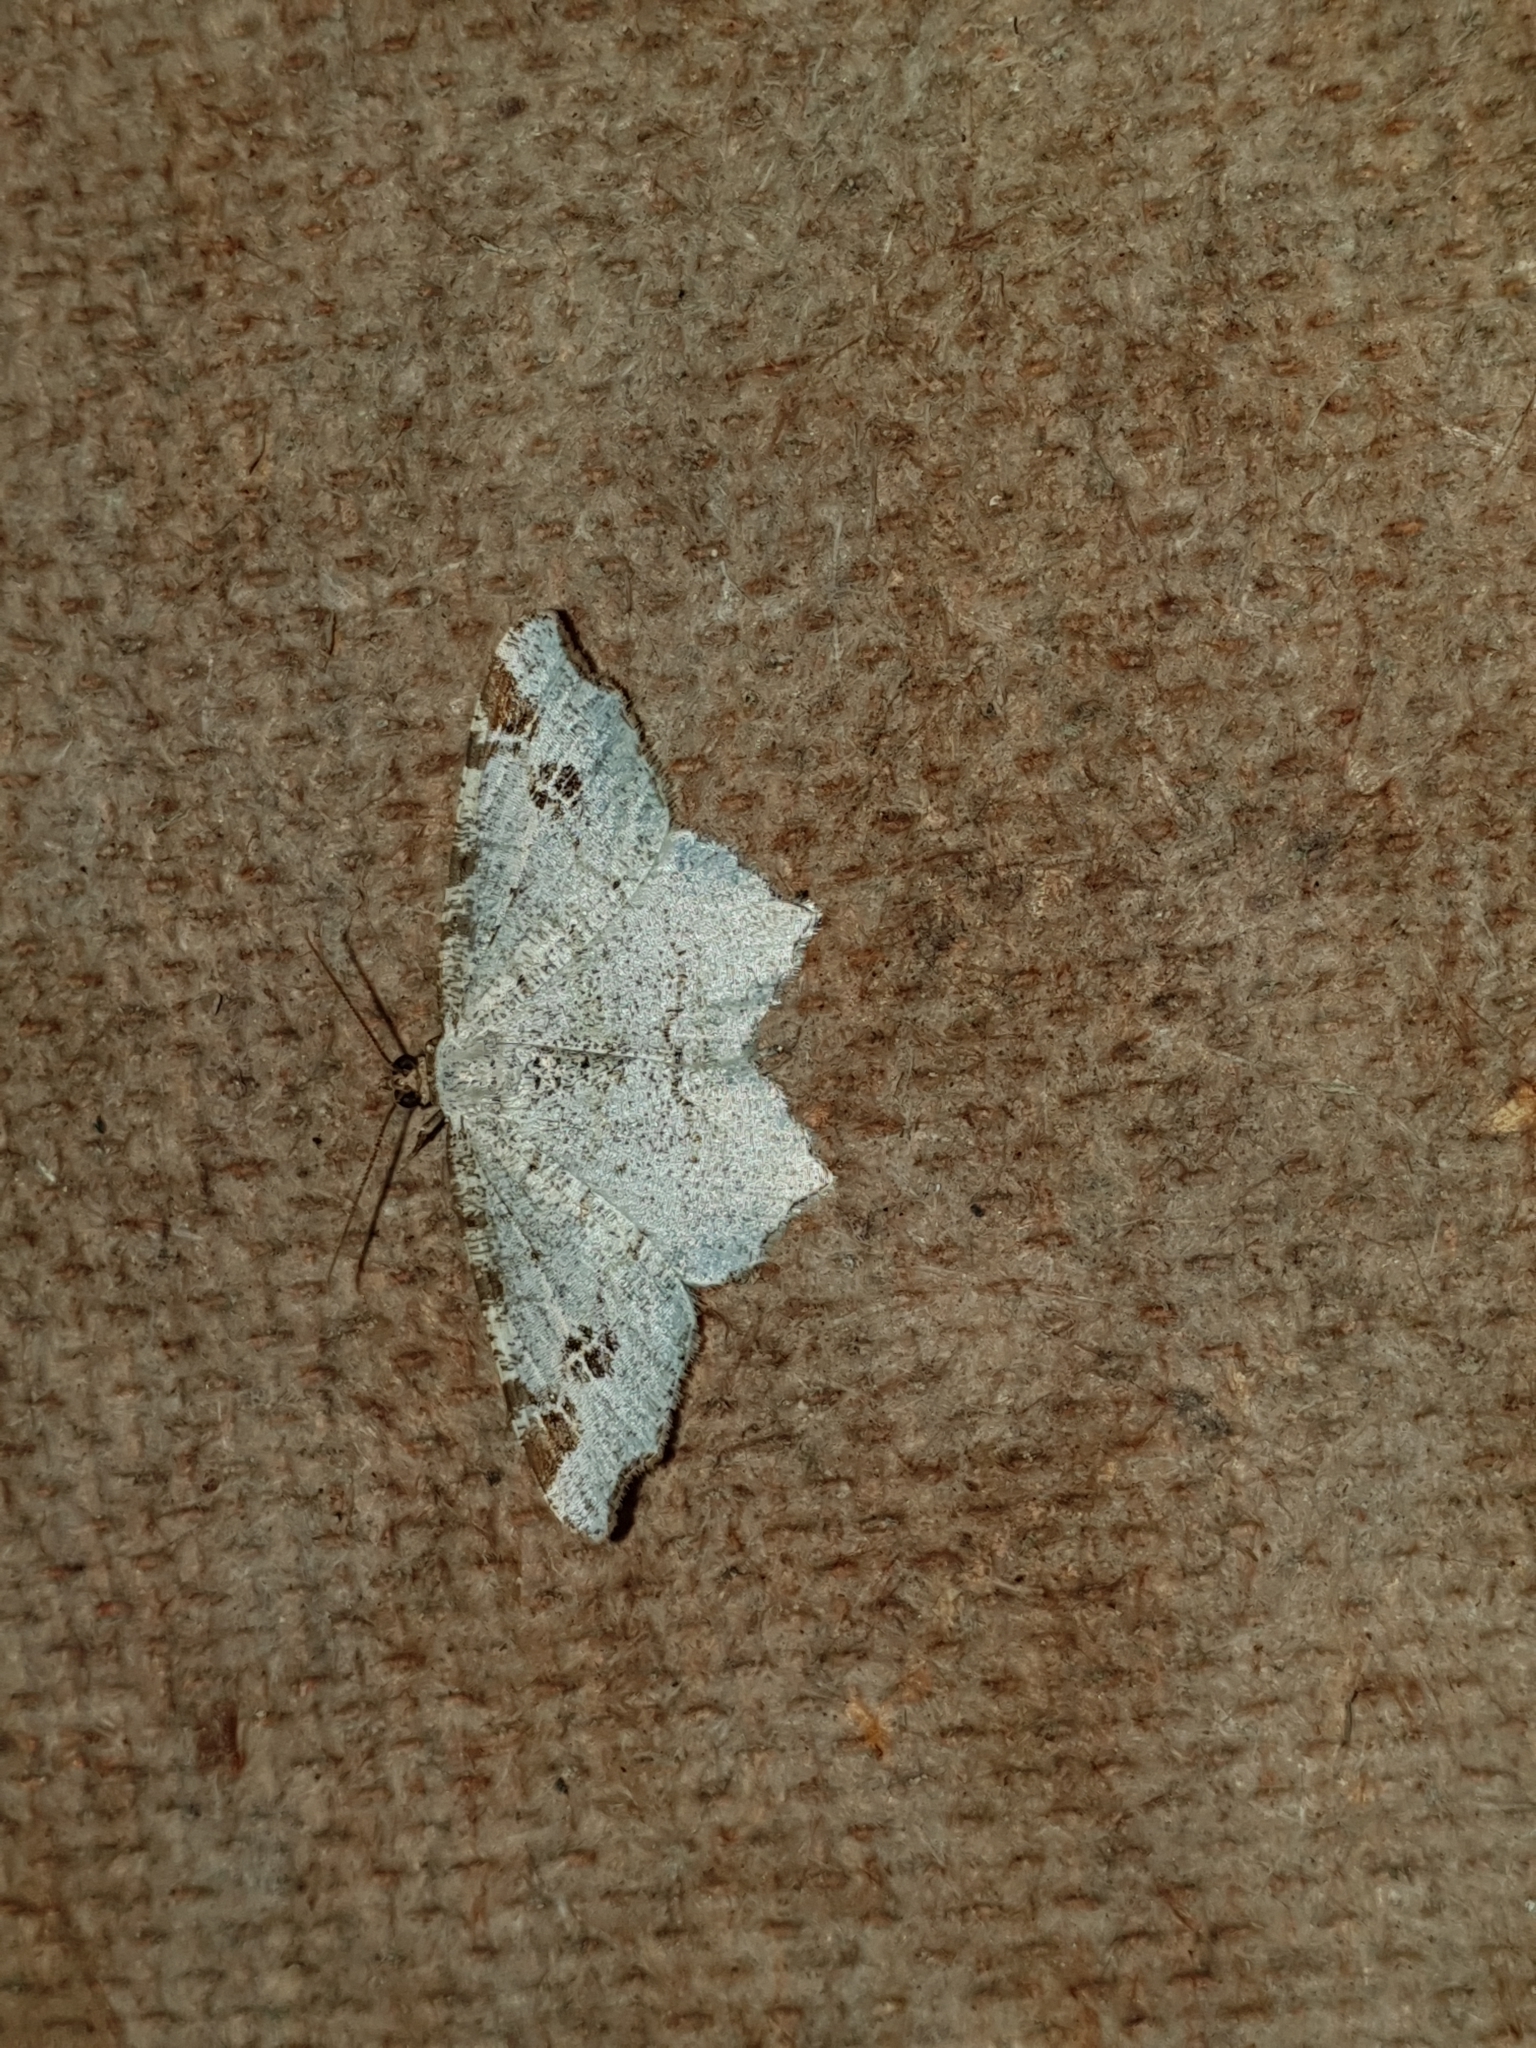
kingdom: Animalia
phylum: Arthropoda
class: Insecta
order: Lepidoptera
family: Geometridae
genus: Macaria
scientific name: Macaria notata
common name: Peacock moth
